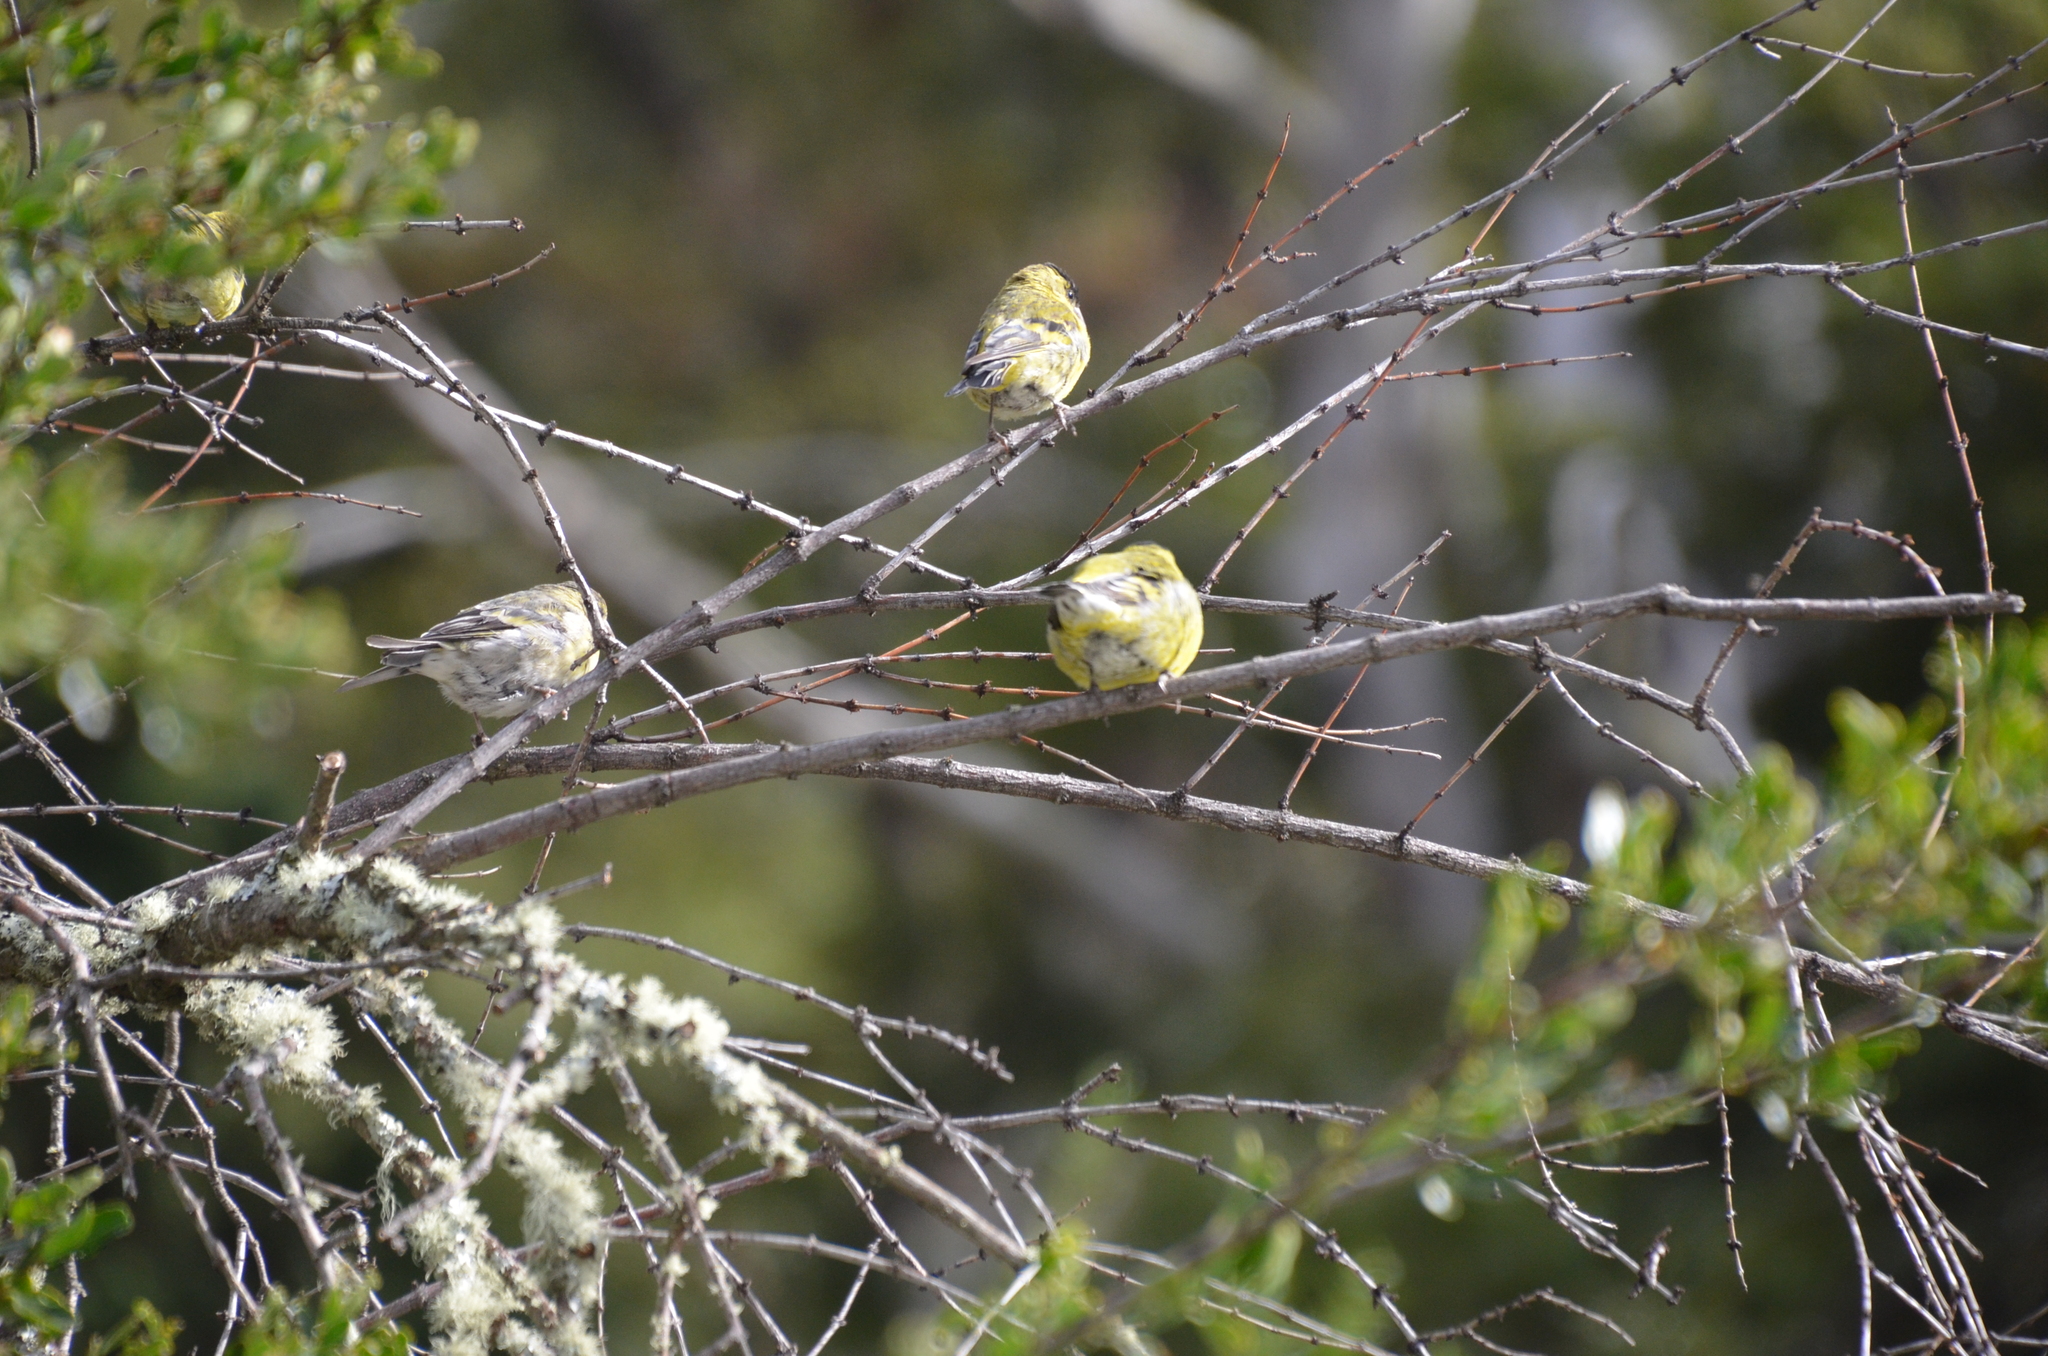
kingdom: Animalia
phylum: Chordata
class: Aves
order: Passeriformes
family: Fringillidae
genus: Spinus
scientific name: Spinus barbatus
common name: Black-chinned siskin
